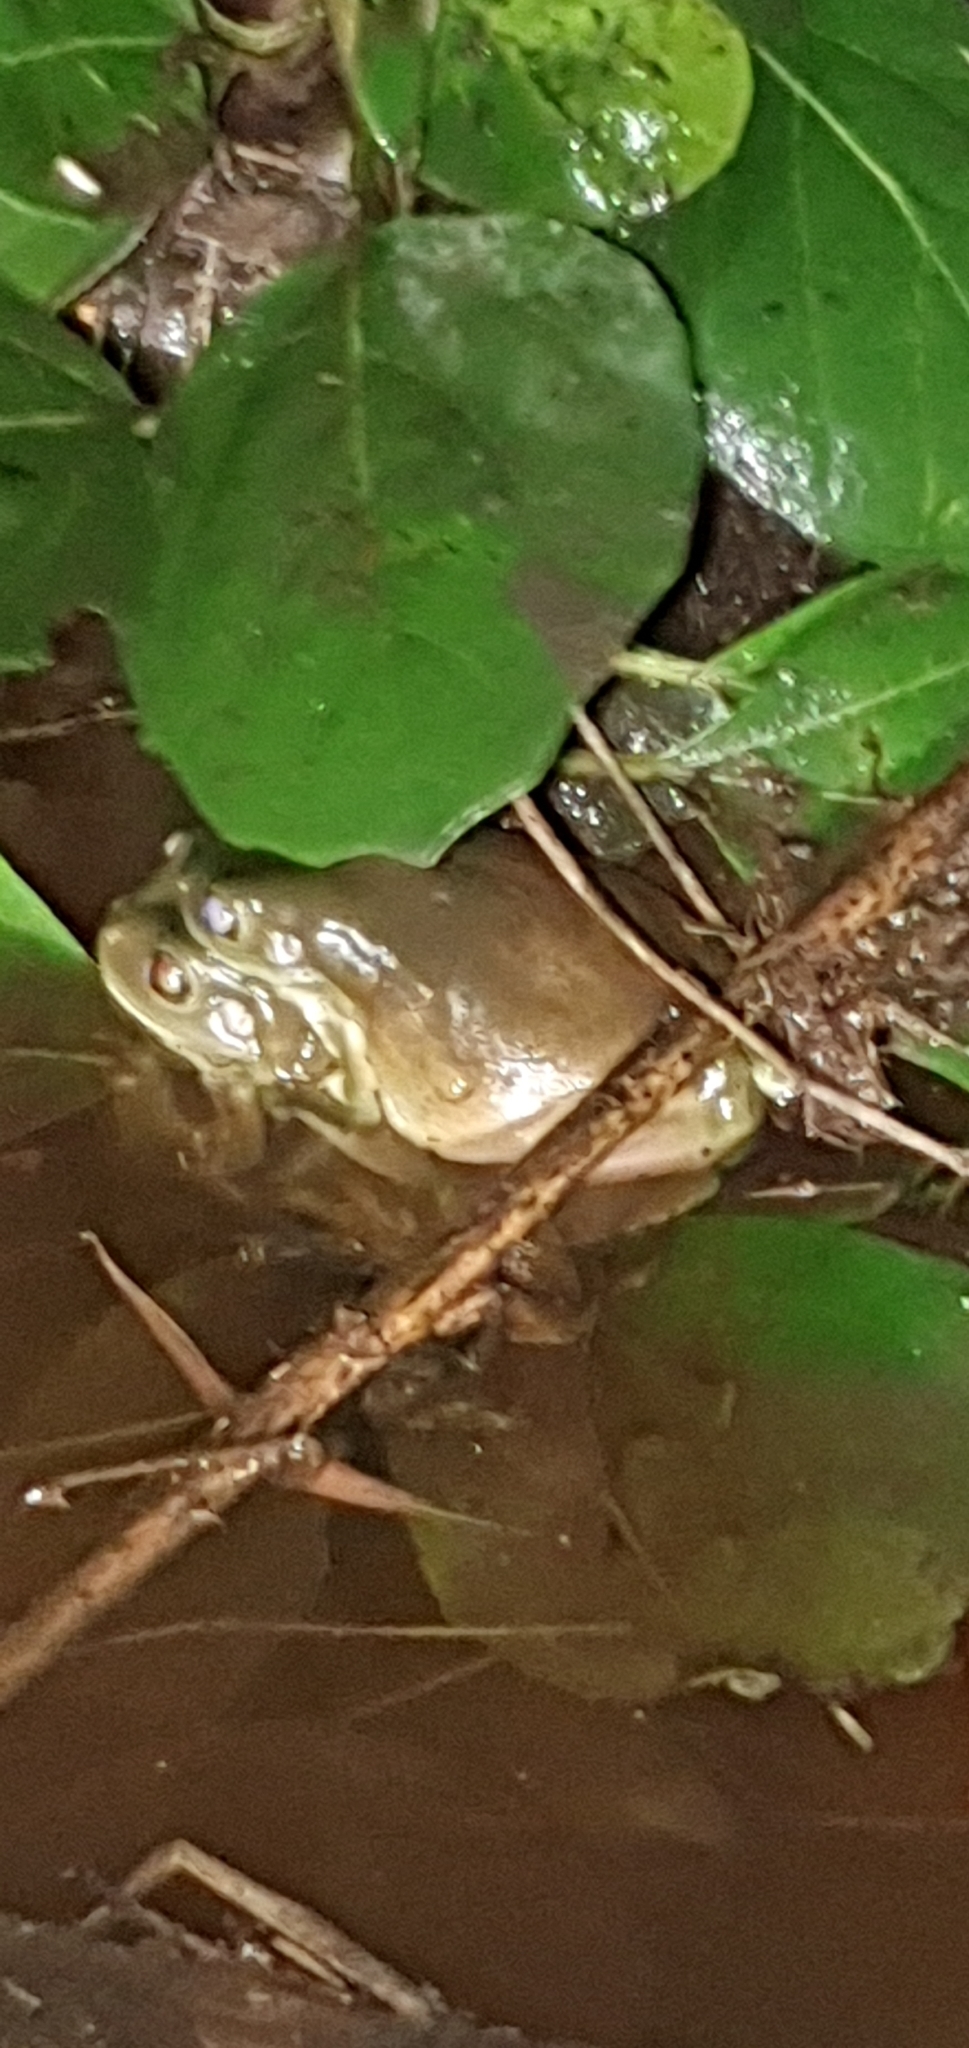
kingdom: Animalia
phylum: Chordata
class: Amphibia
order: Anura
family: Pelodryadidae
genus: Ranoidea
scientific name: Ranoidea caerulea
